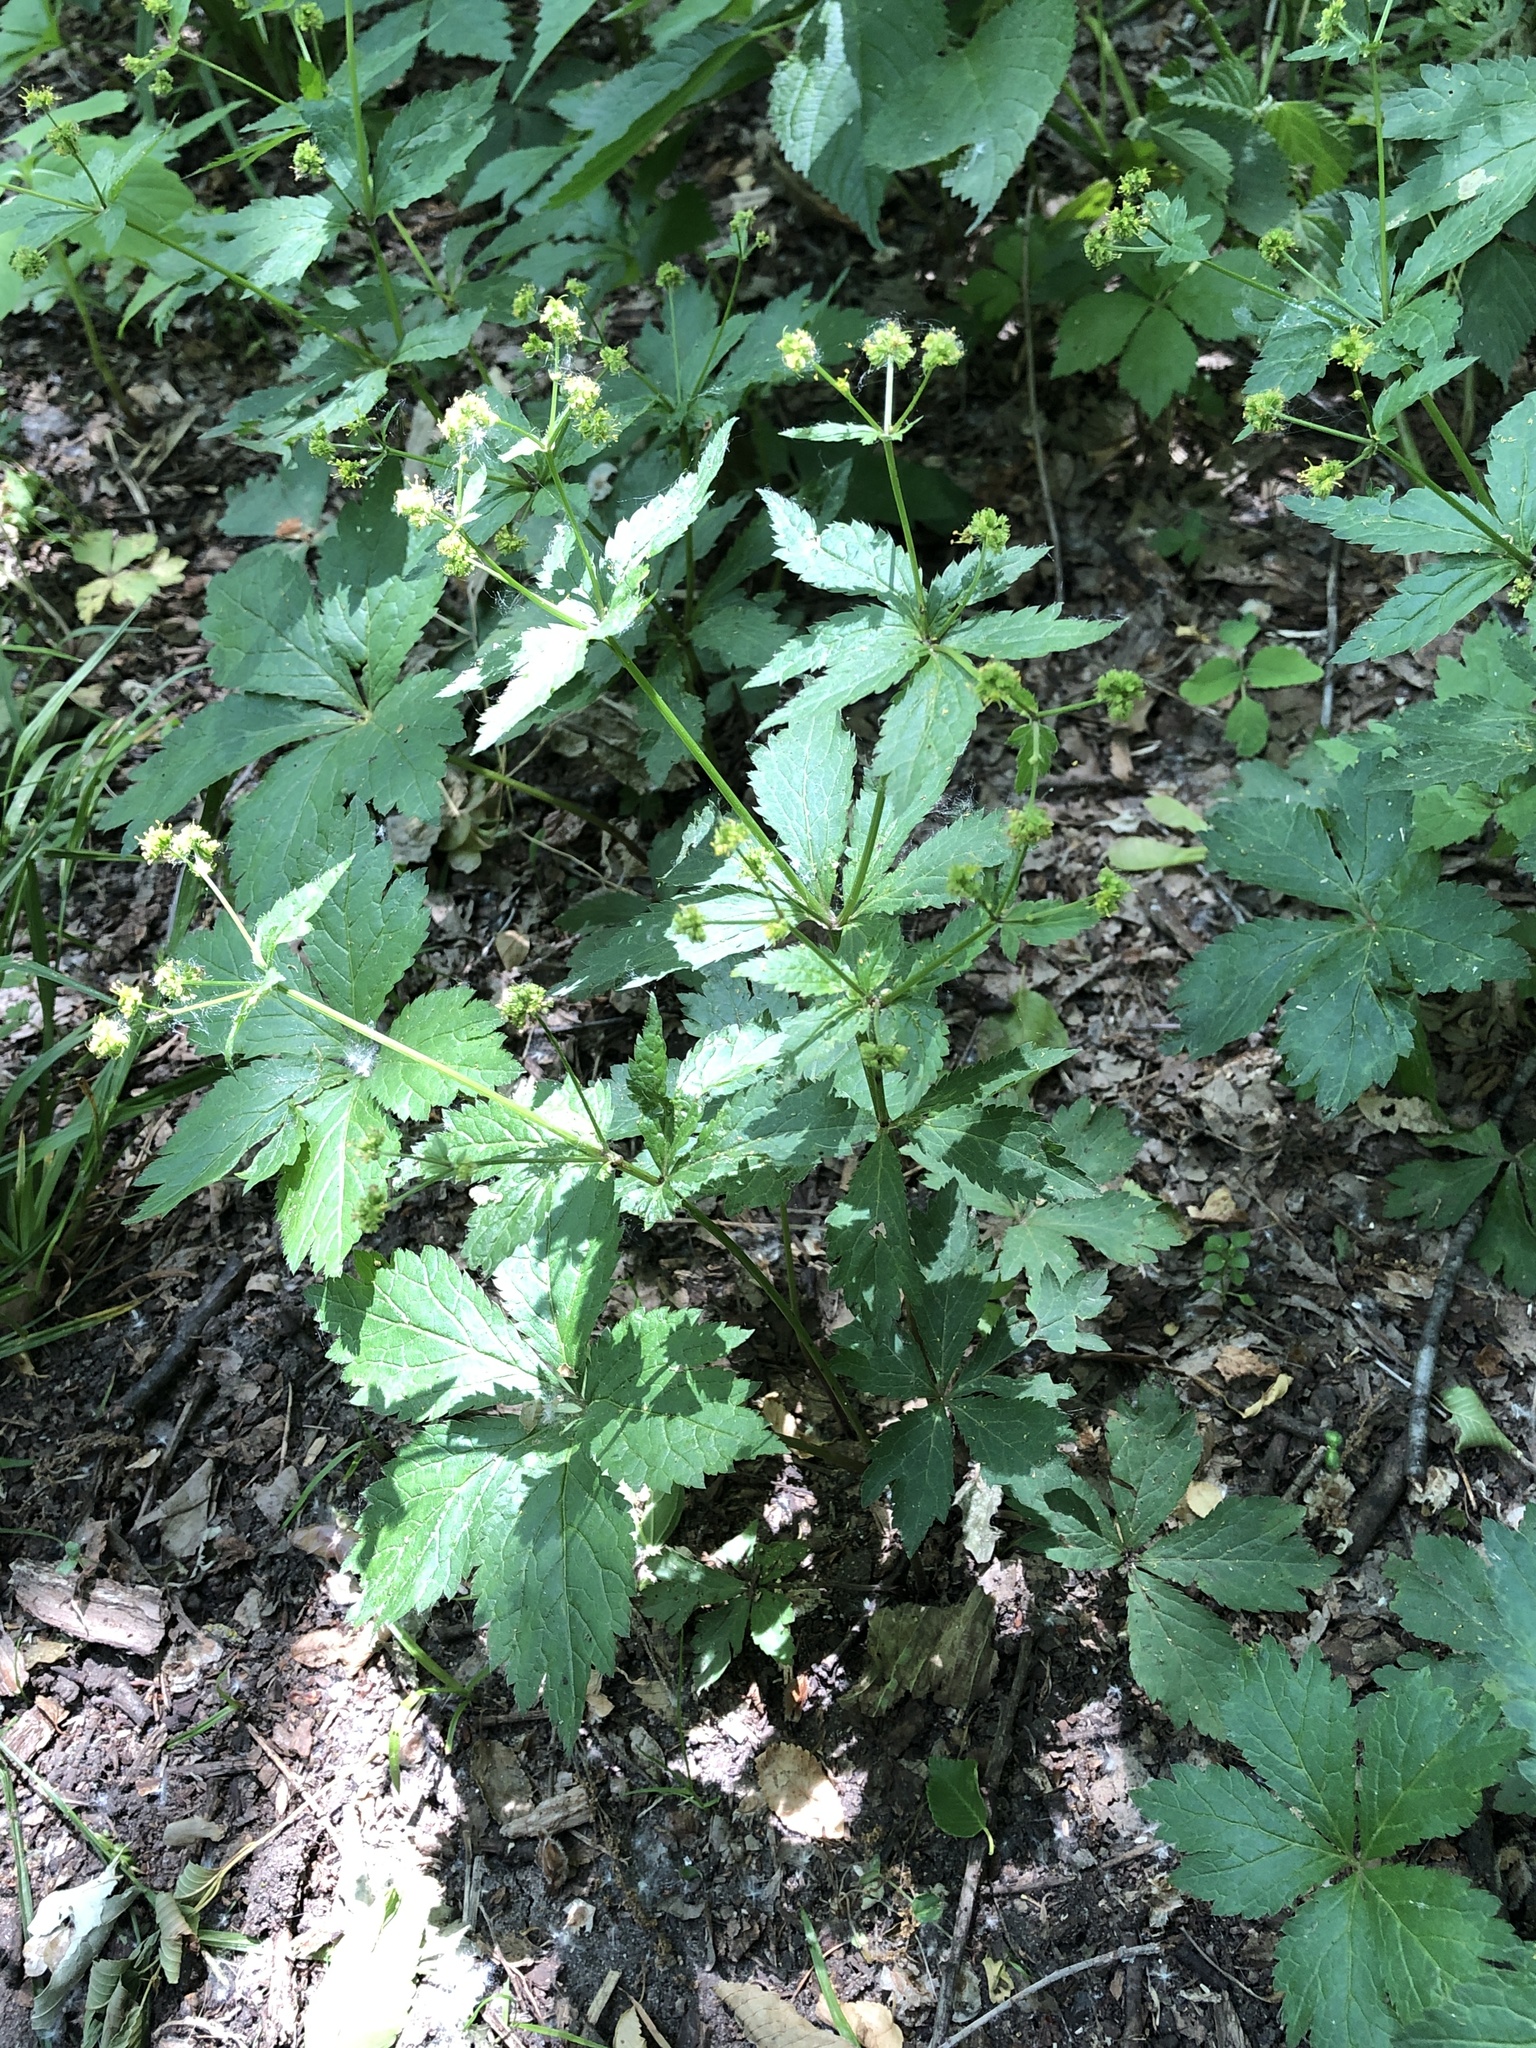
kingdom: Plantae
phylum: Tracheophyta
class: Magnoliopsida
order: Apiales
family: Apiaceae
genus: Sanicula
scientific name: Sanicula odorata
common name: Cluster sanicle
